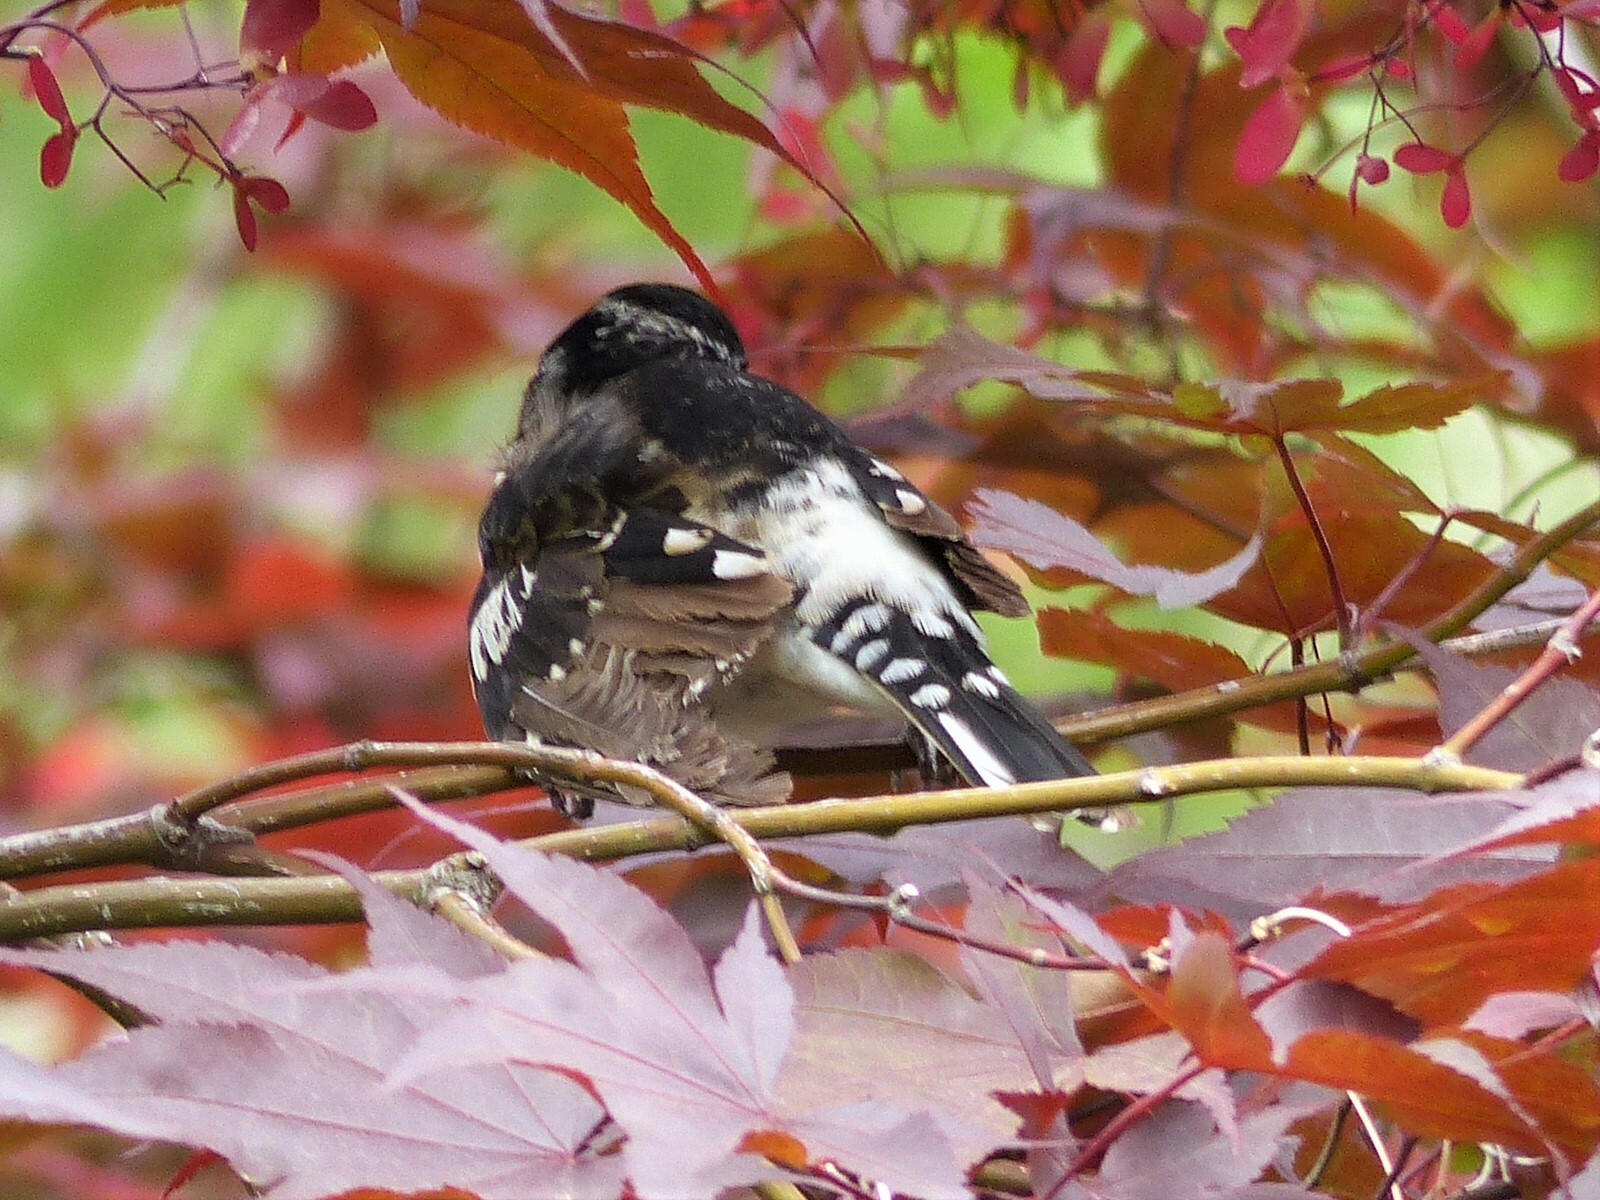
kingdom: Animalia
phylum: Chordata
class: Aves
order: Passeriformes
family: Cardinalidae
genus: Pheucticus
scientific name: Pheucticus ludovicianus
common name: Rose-breasted grosbeak
